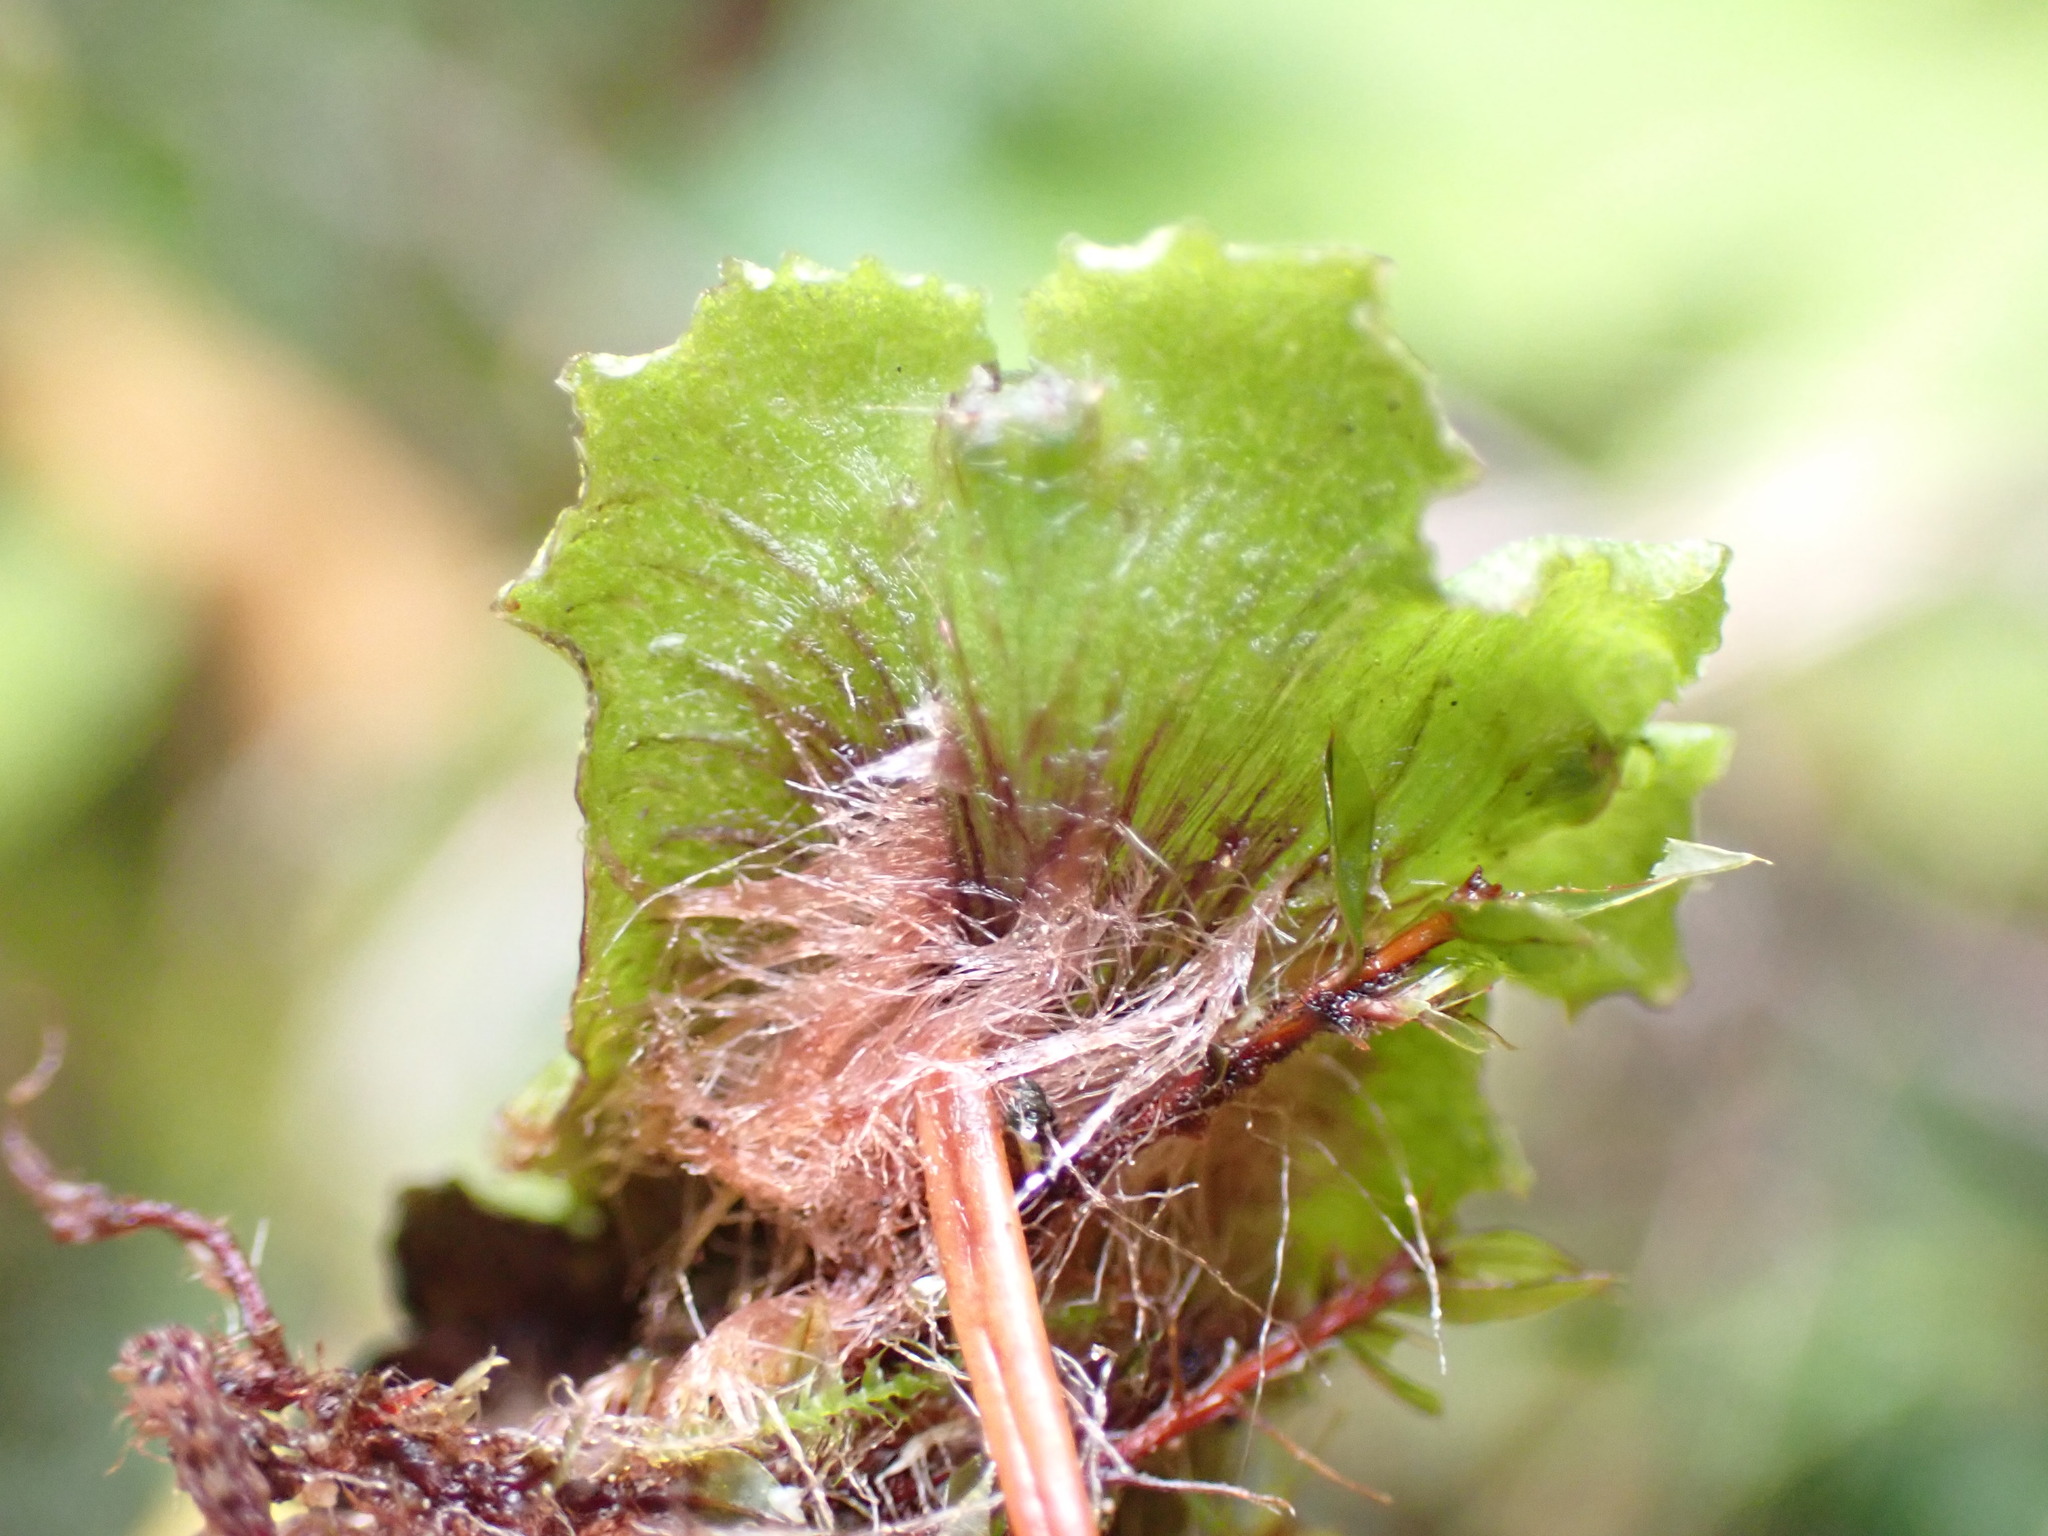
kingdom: Plantae
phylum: Marchantiophyta
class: Marchantiopsida
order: Marchantiales
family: Marchantiaceae
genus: Marchantia
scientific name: Marchantia polymorpha
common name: Common liverwort
